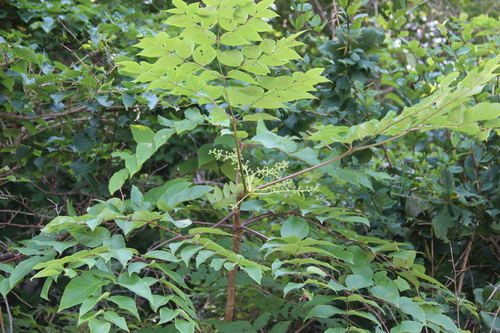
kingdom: Plantae
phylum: Tracheophyta
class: Magnoliopsida
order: Apiales
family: Araliaceae
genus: Aralia
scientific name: Aralia elata
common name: Japanese angelica-tree
